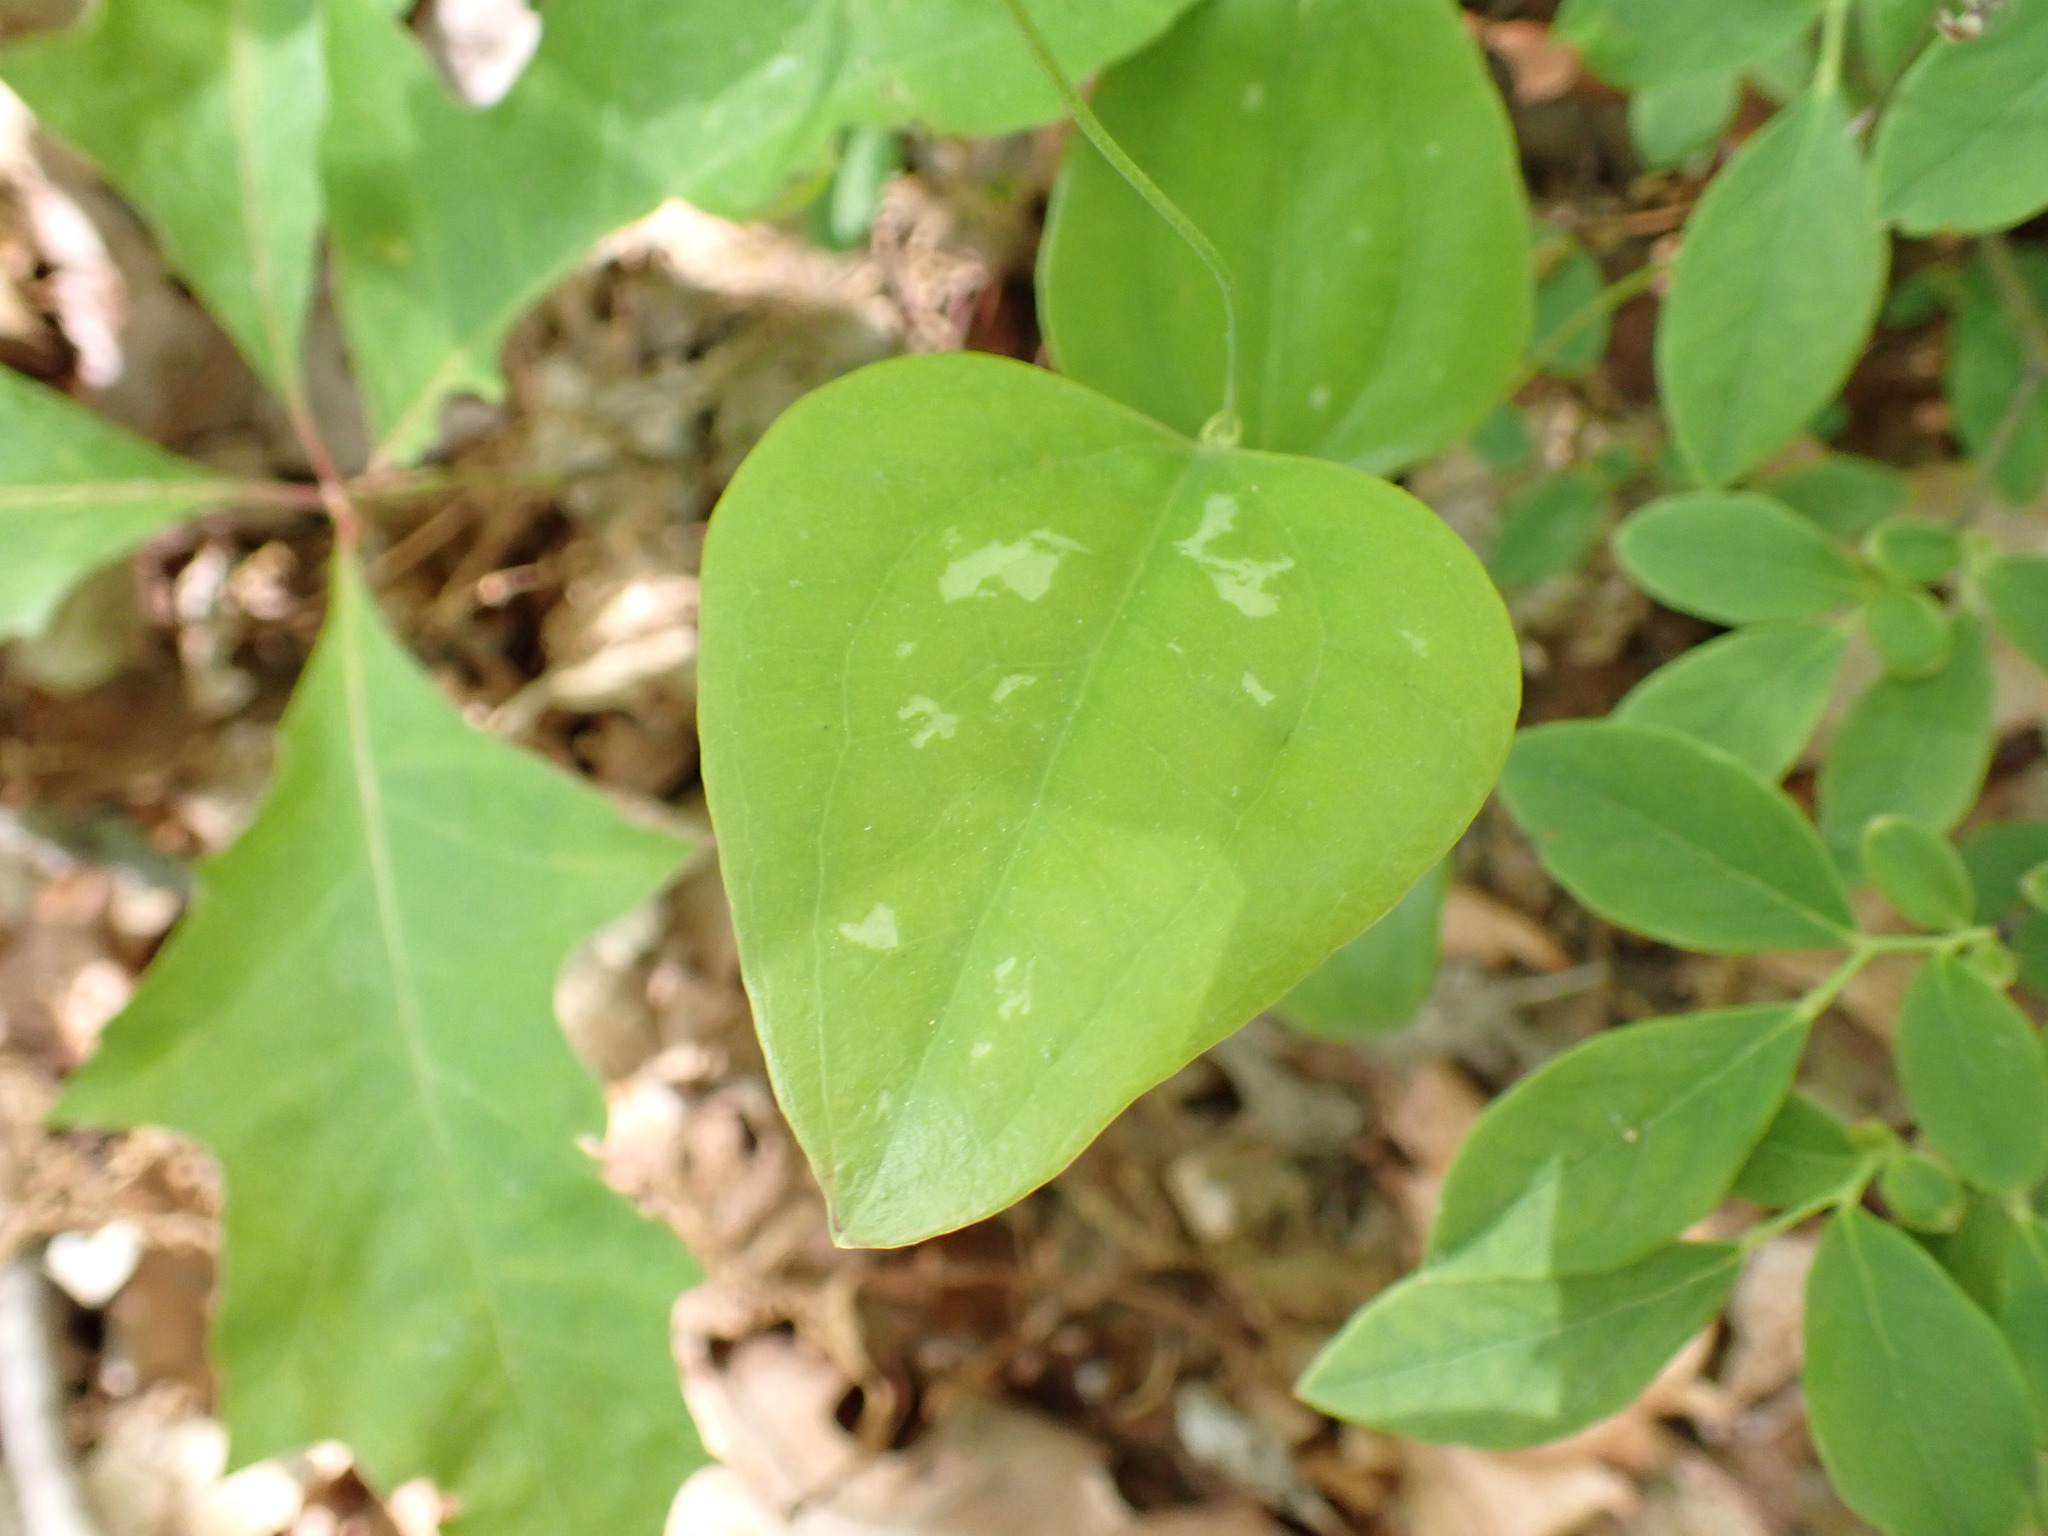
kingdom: Plantae
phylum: Tracheophyta
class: Liliopsida
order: Liliales
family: Smilacaceae
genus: Smilax
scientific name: Smilax glauca
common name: Cat greenbrier
